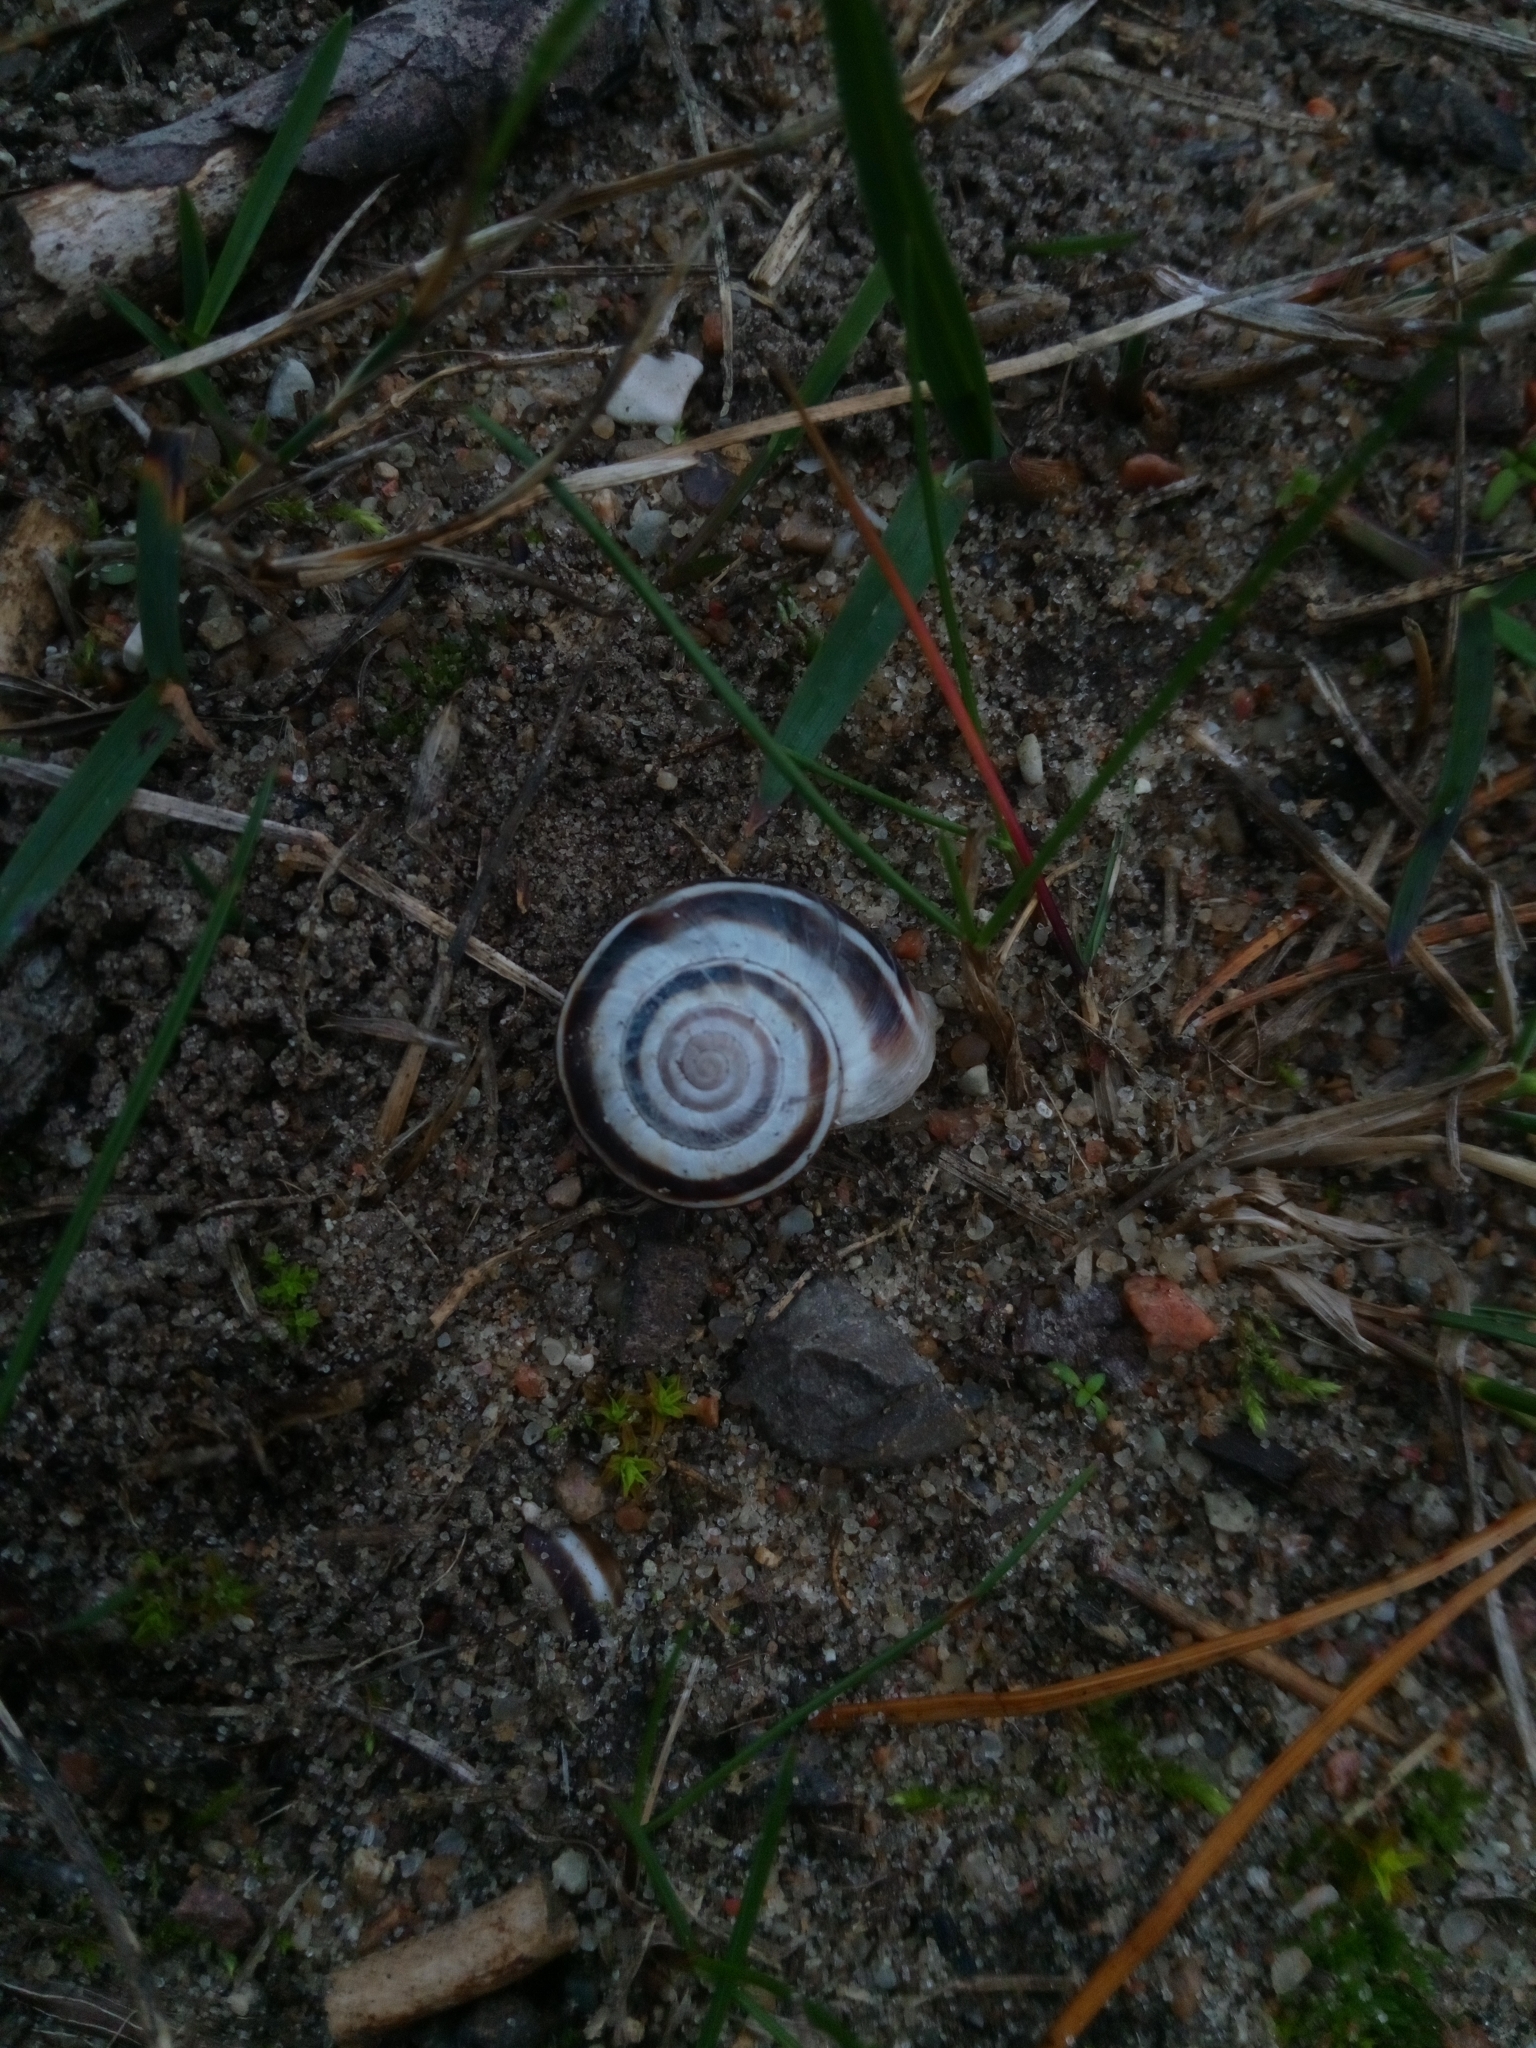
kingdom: Animalia
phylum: Mollusca
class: Gastropoda
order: Stylommatophora
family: Geomitridae
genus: Xerolenta
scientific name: Xerolenta obvia
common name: White heath snail
